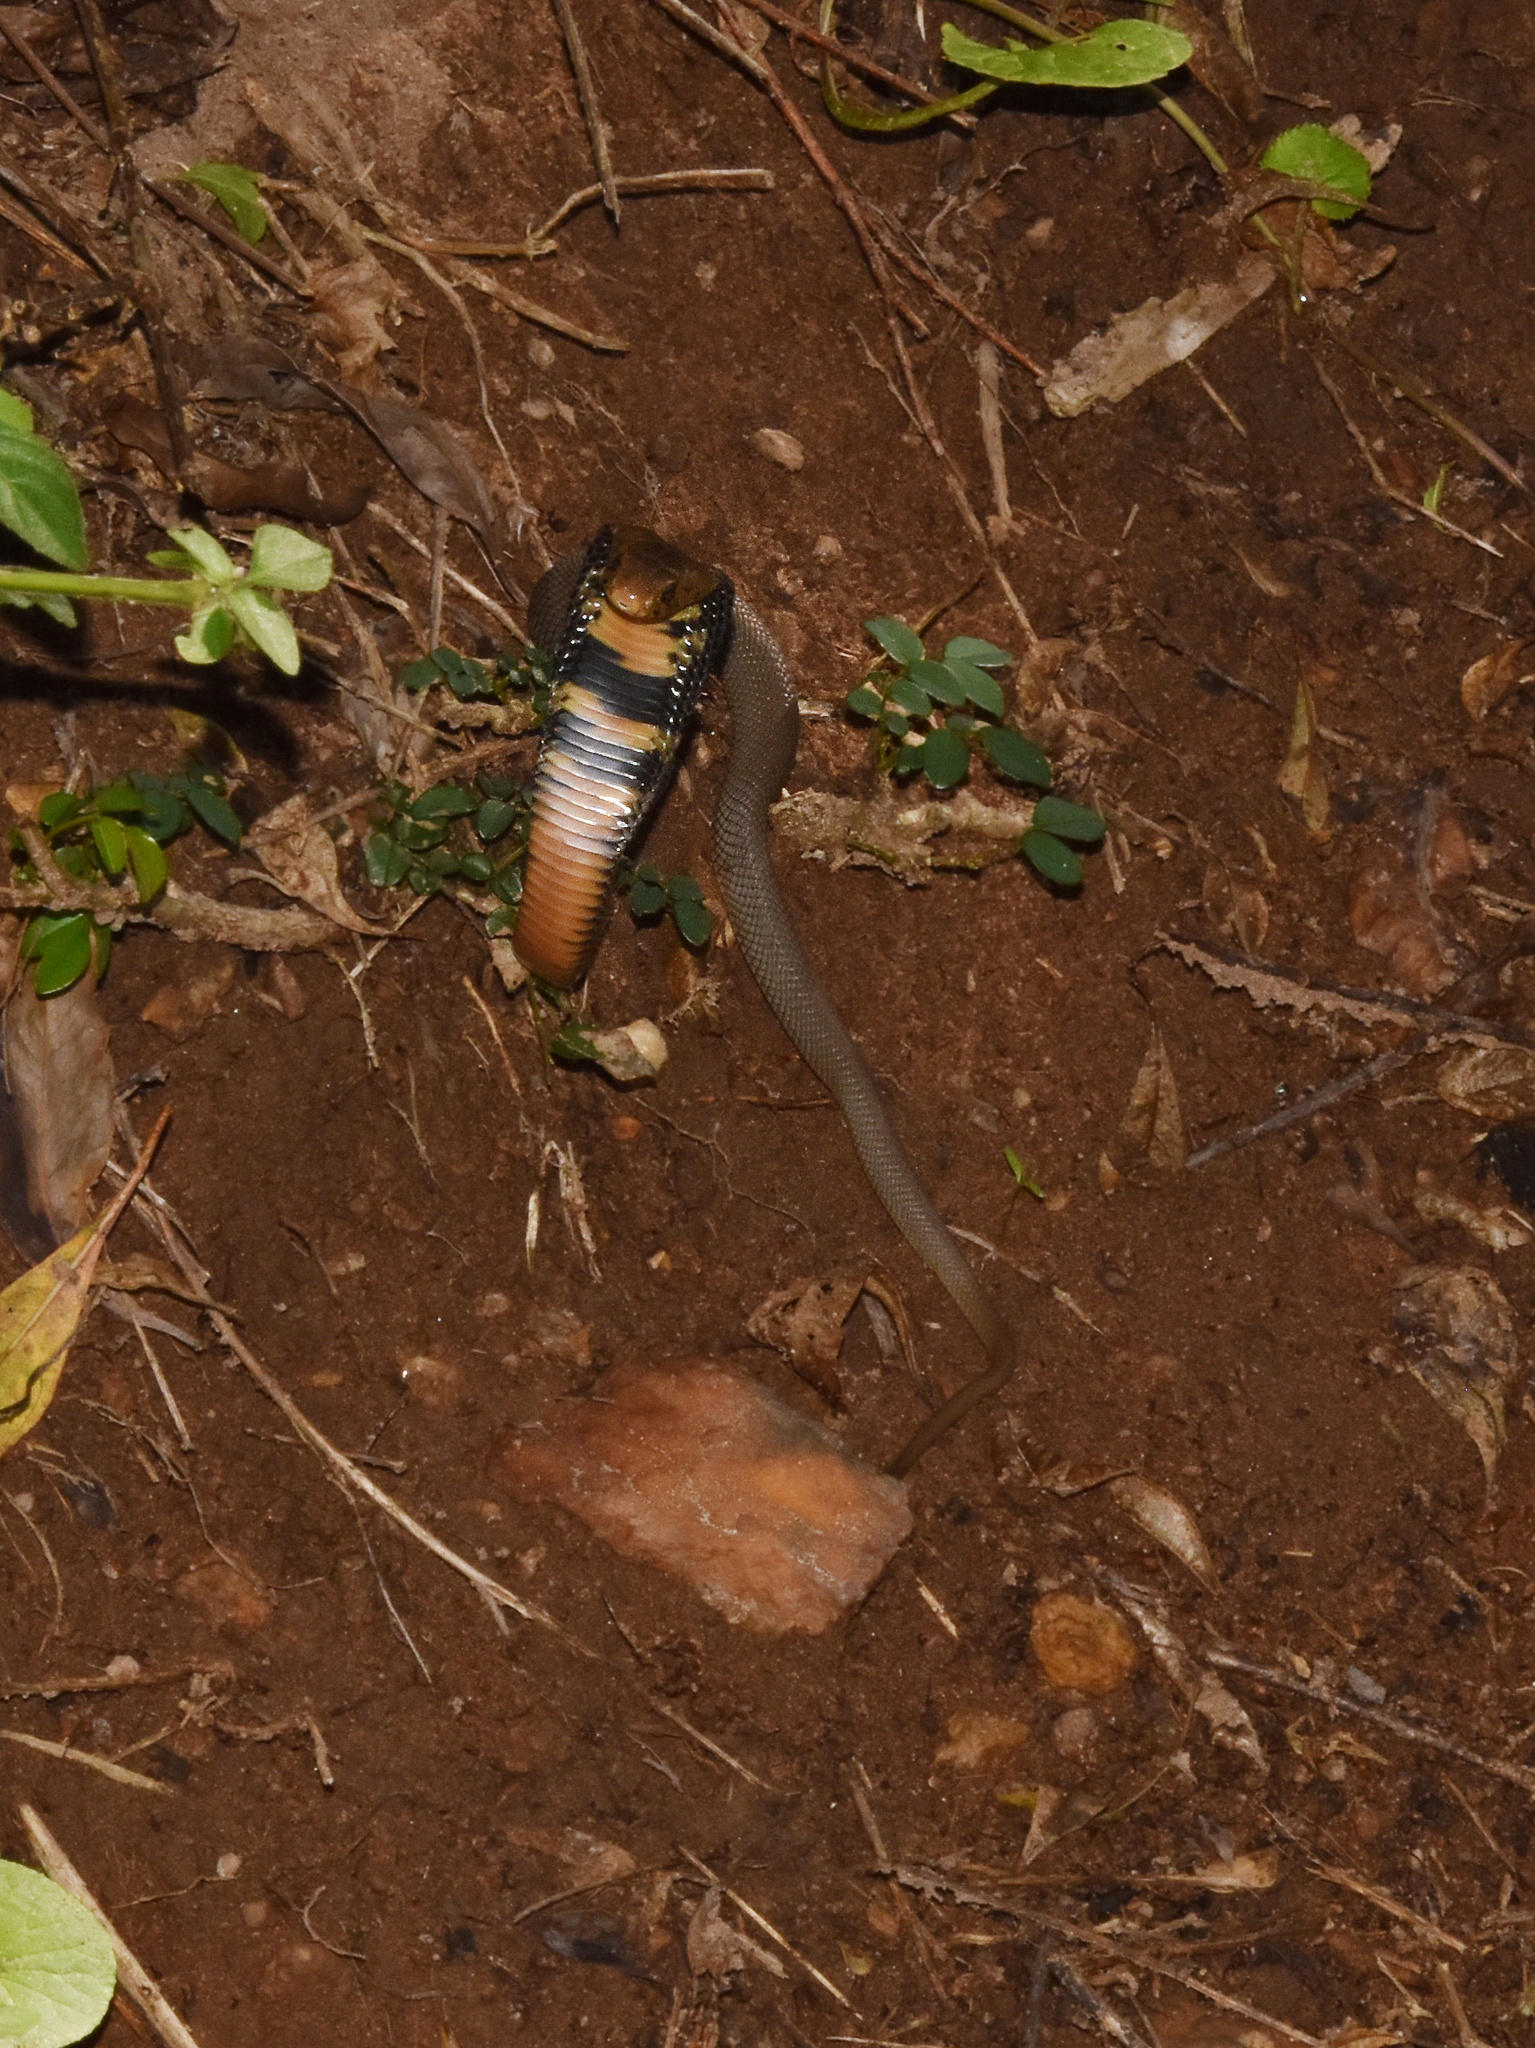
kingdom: Animalia
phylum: Chordata
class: Squamata
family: Elapidae
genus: Naja
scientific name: Naja mossambica
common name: Mozambique spitting cobra
